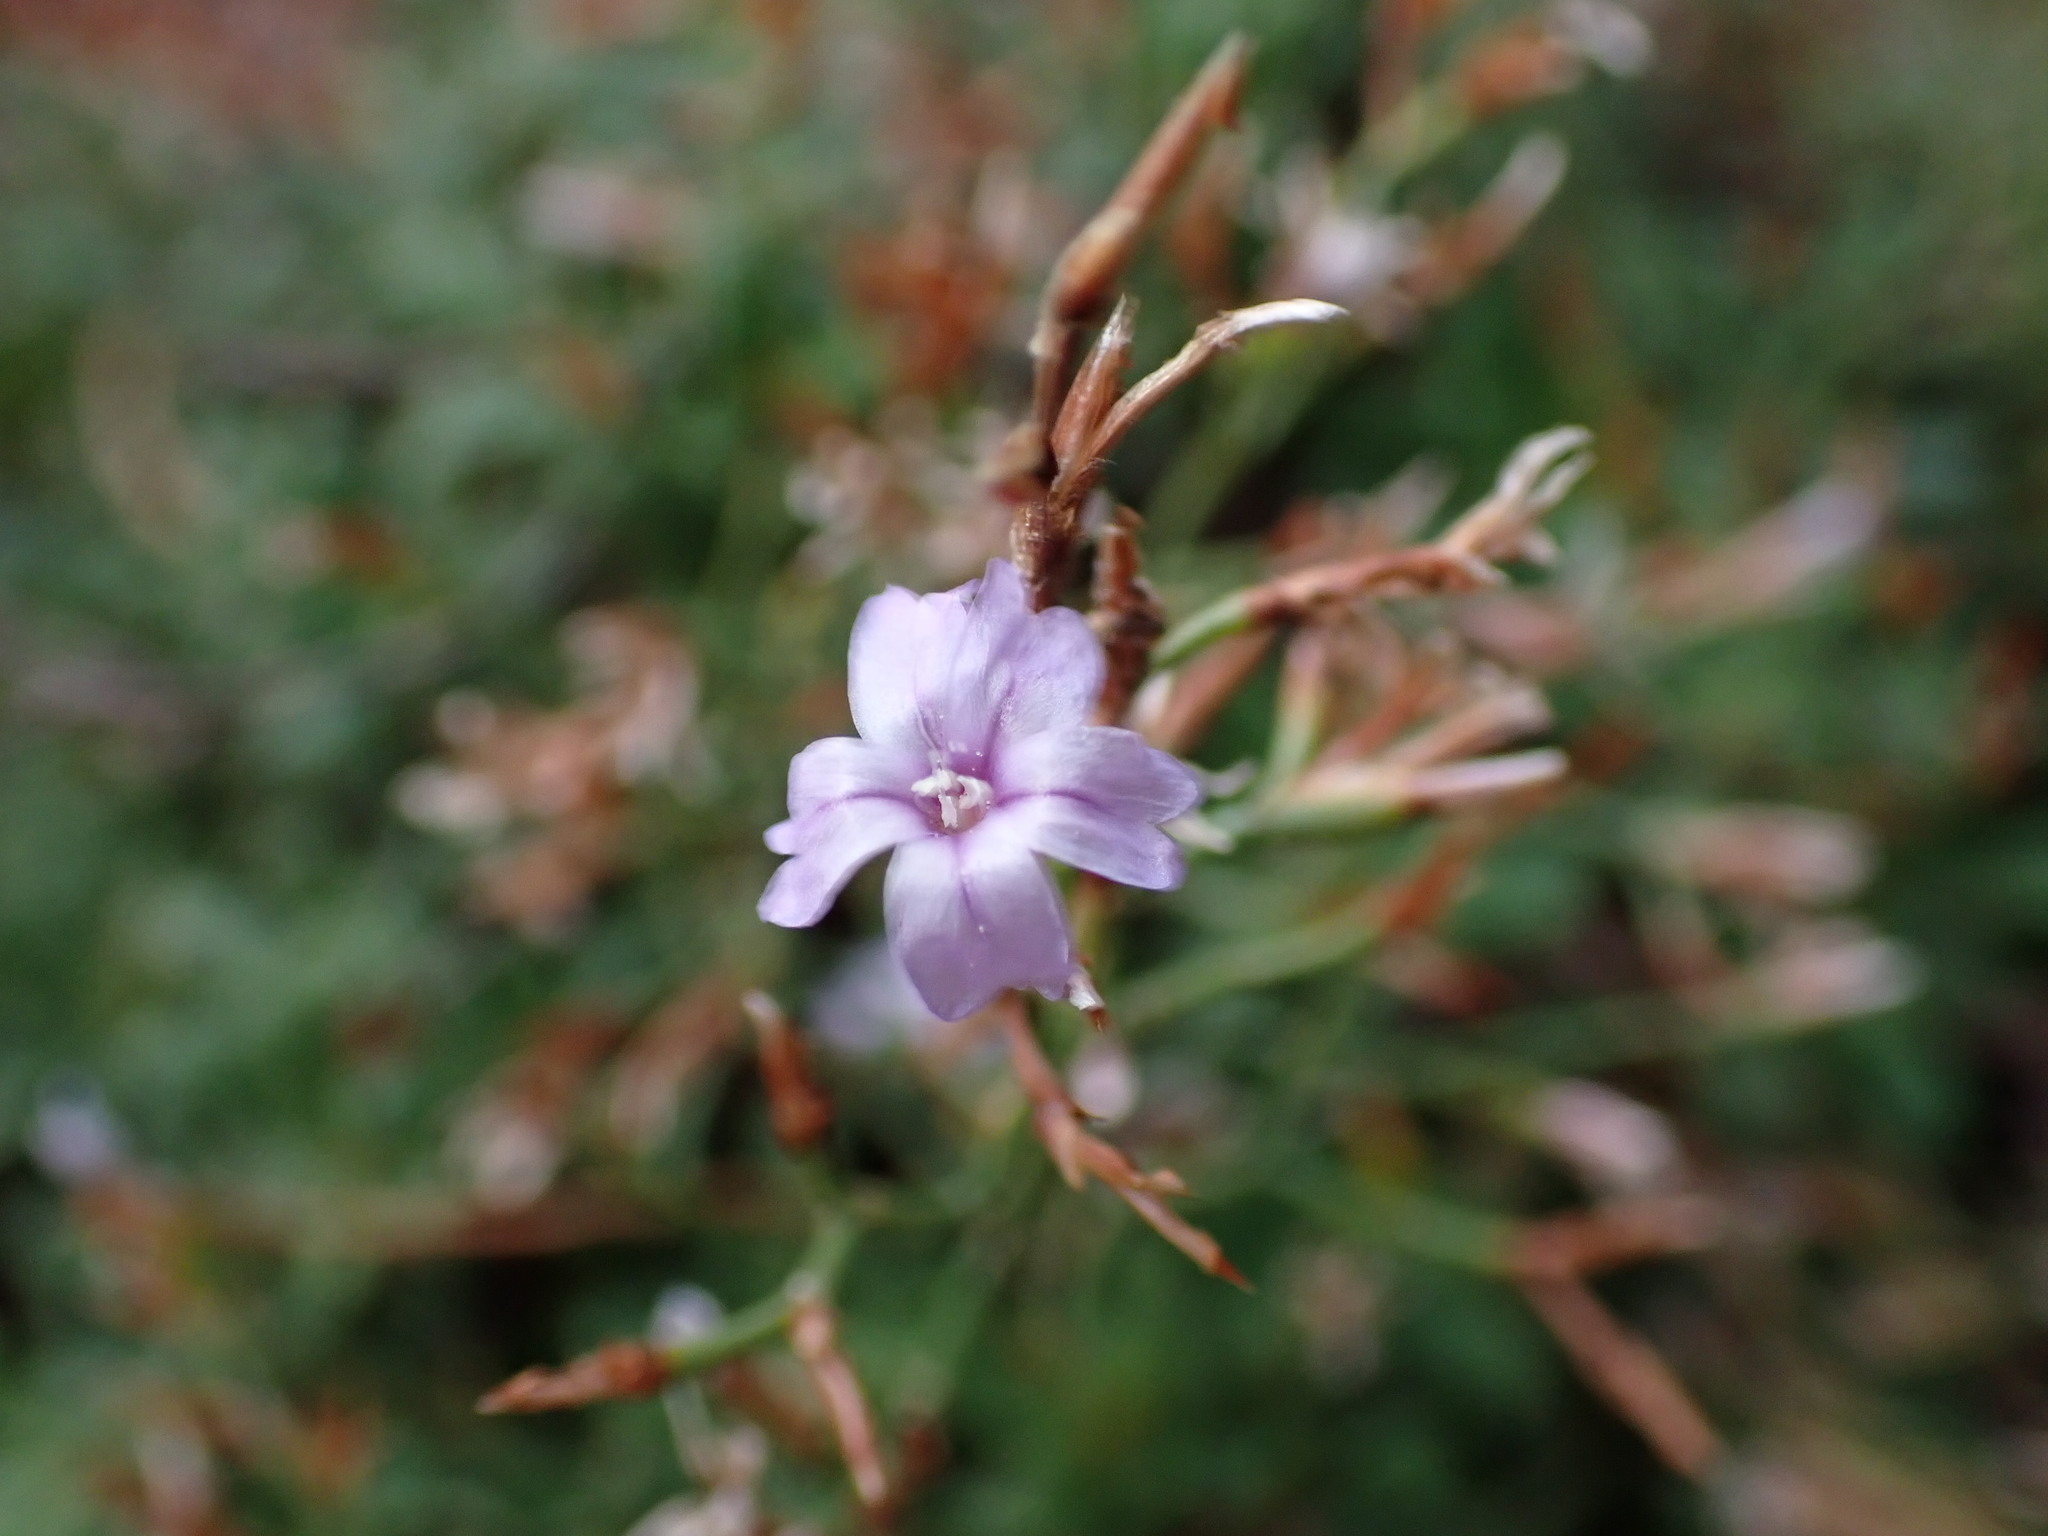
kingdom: Plantae
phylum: Tracheophyta
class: Magnoliopsida
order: Caryophyllales
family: Plumbaginaceae
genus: Limonium
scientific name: Limonium pseudominutum
